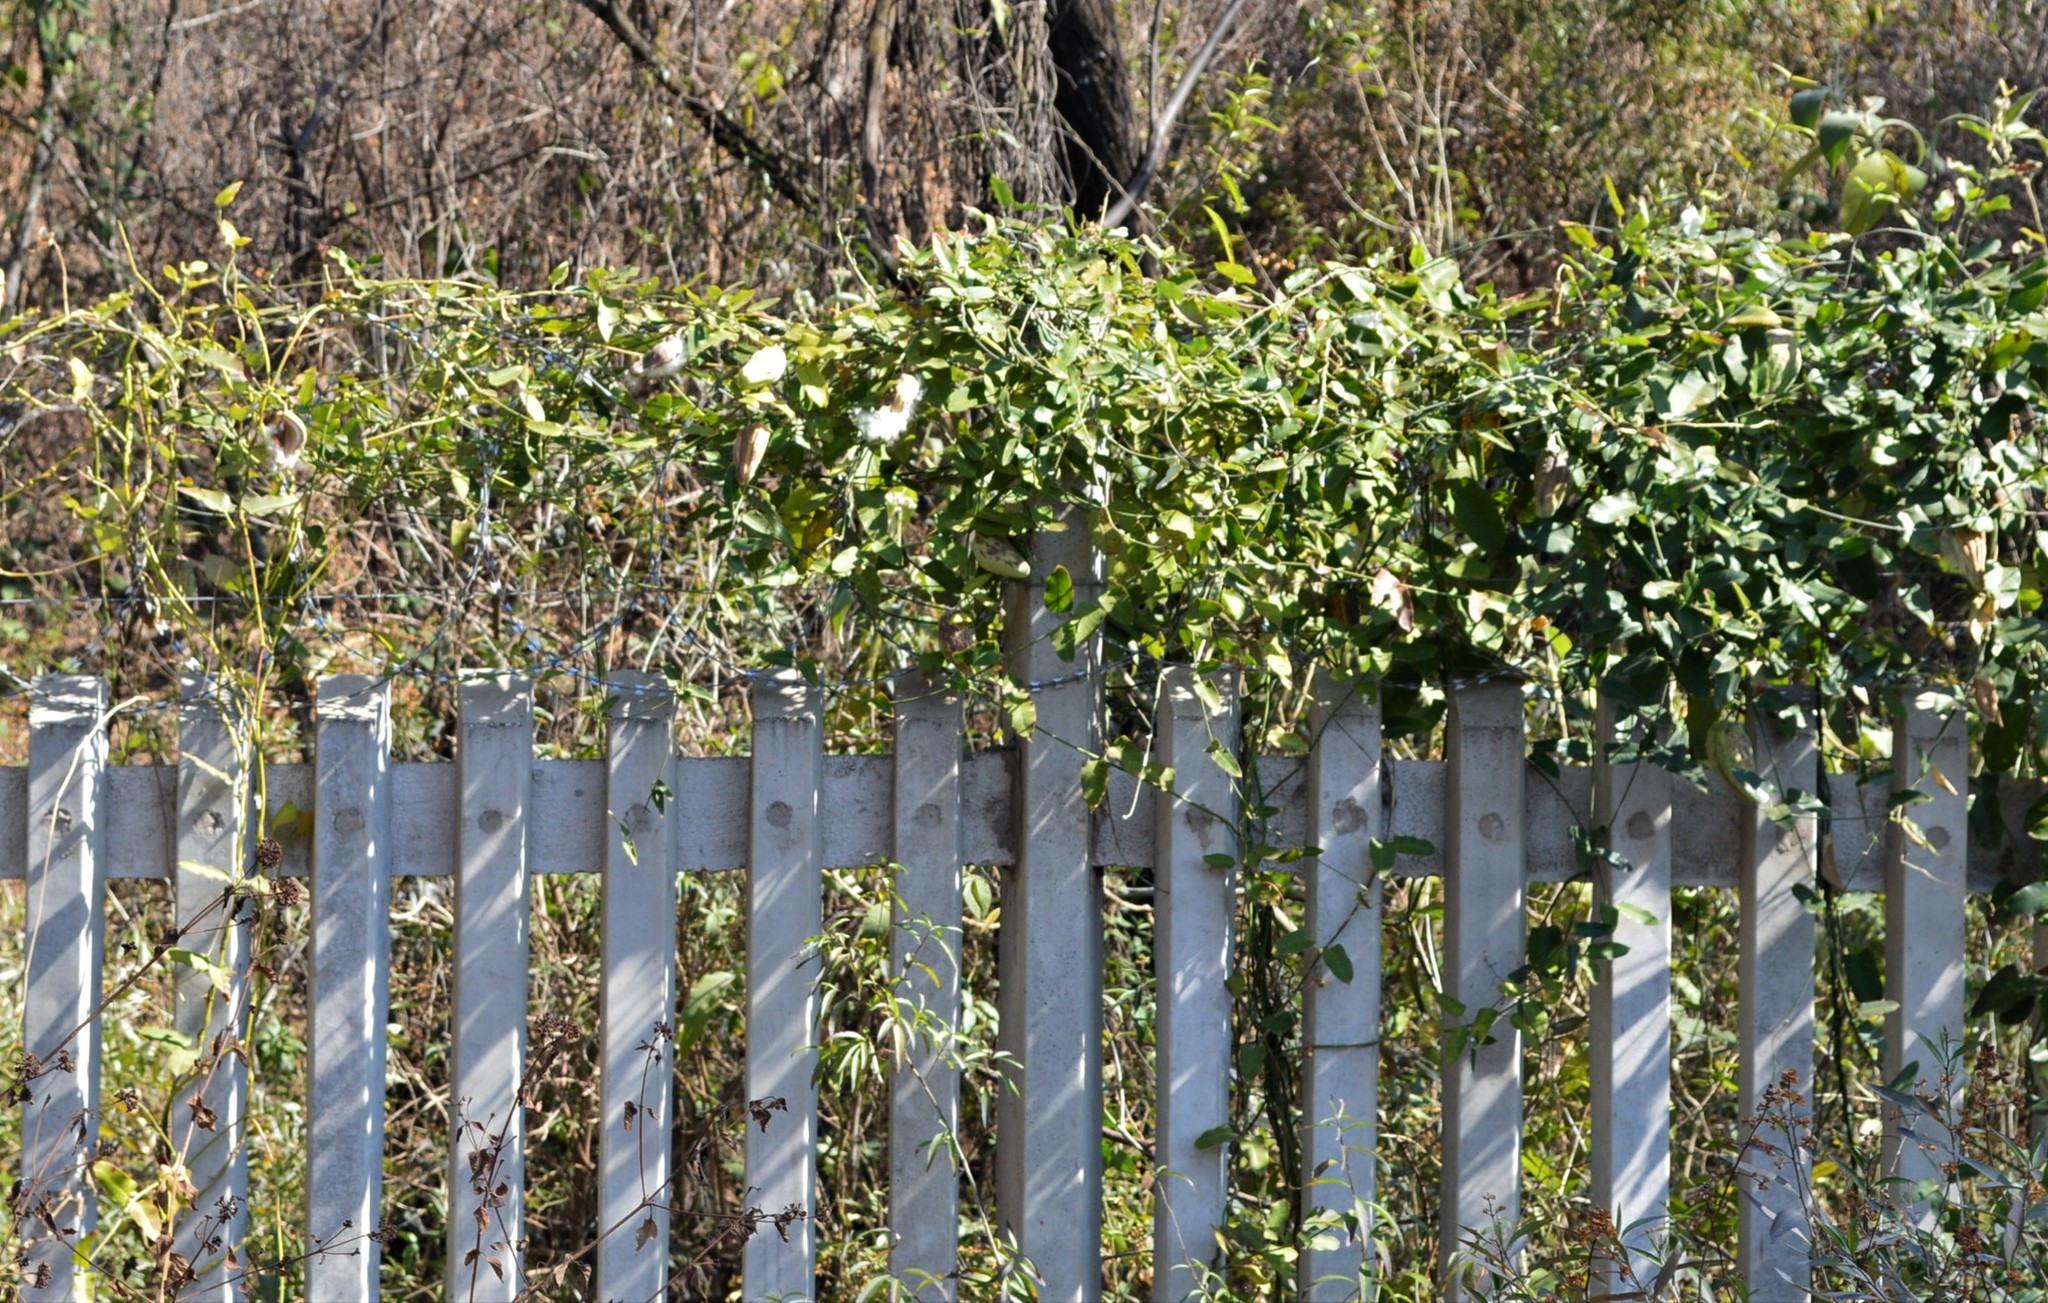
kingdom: Plantae
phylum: Tracheophyta
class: Magnoliopsida
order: Gentianales
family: Apocynaceae
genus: Araujia
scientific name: Araujia sericifera
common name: White bladderflower
